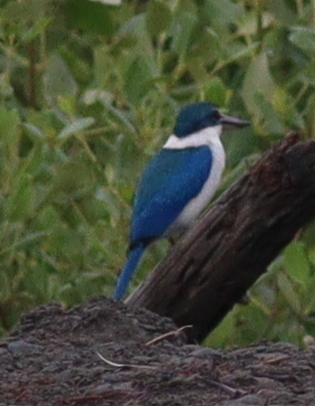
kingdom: Animalia
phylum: Chordata
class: Aves
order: Coraciiformes
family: Alcedinidae
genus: Todiramphus
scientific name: Todiramphus chloris
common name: Collared kingfisher
